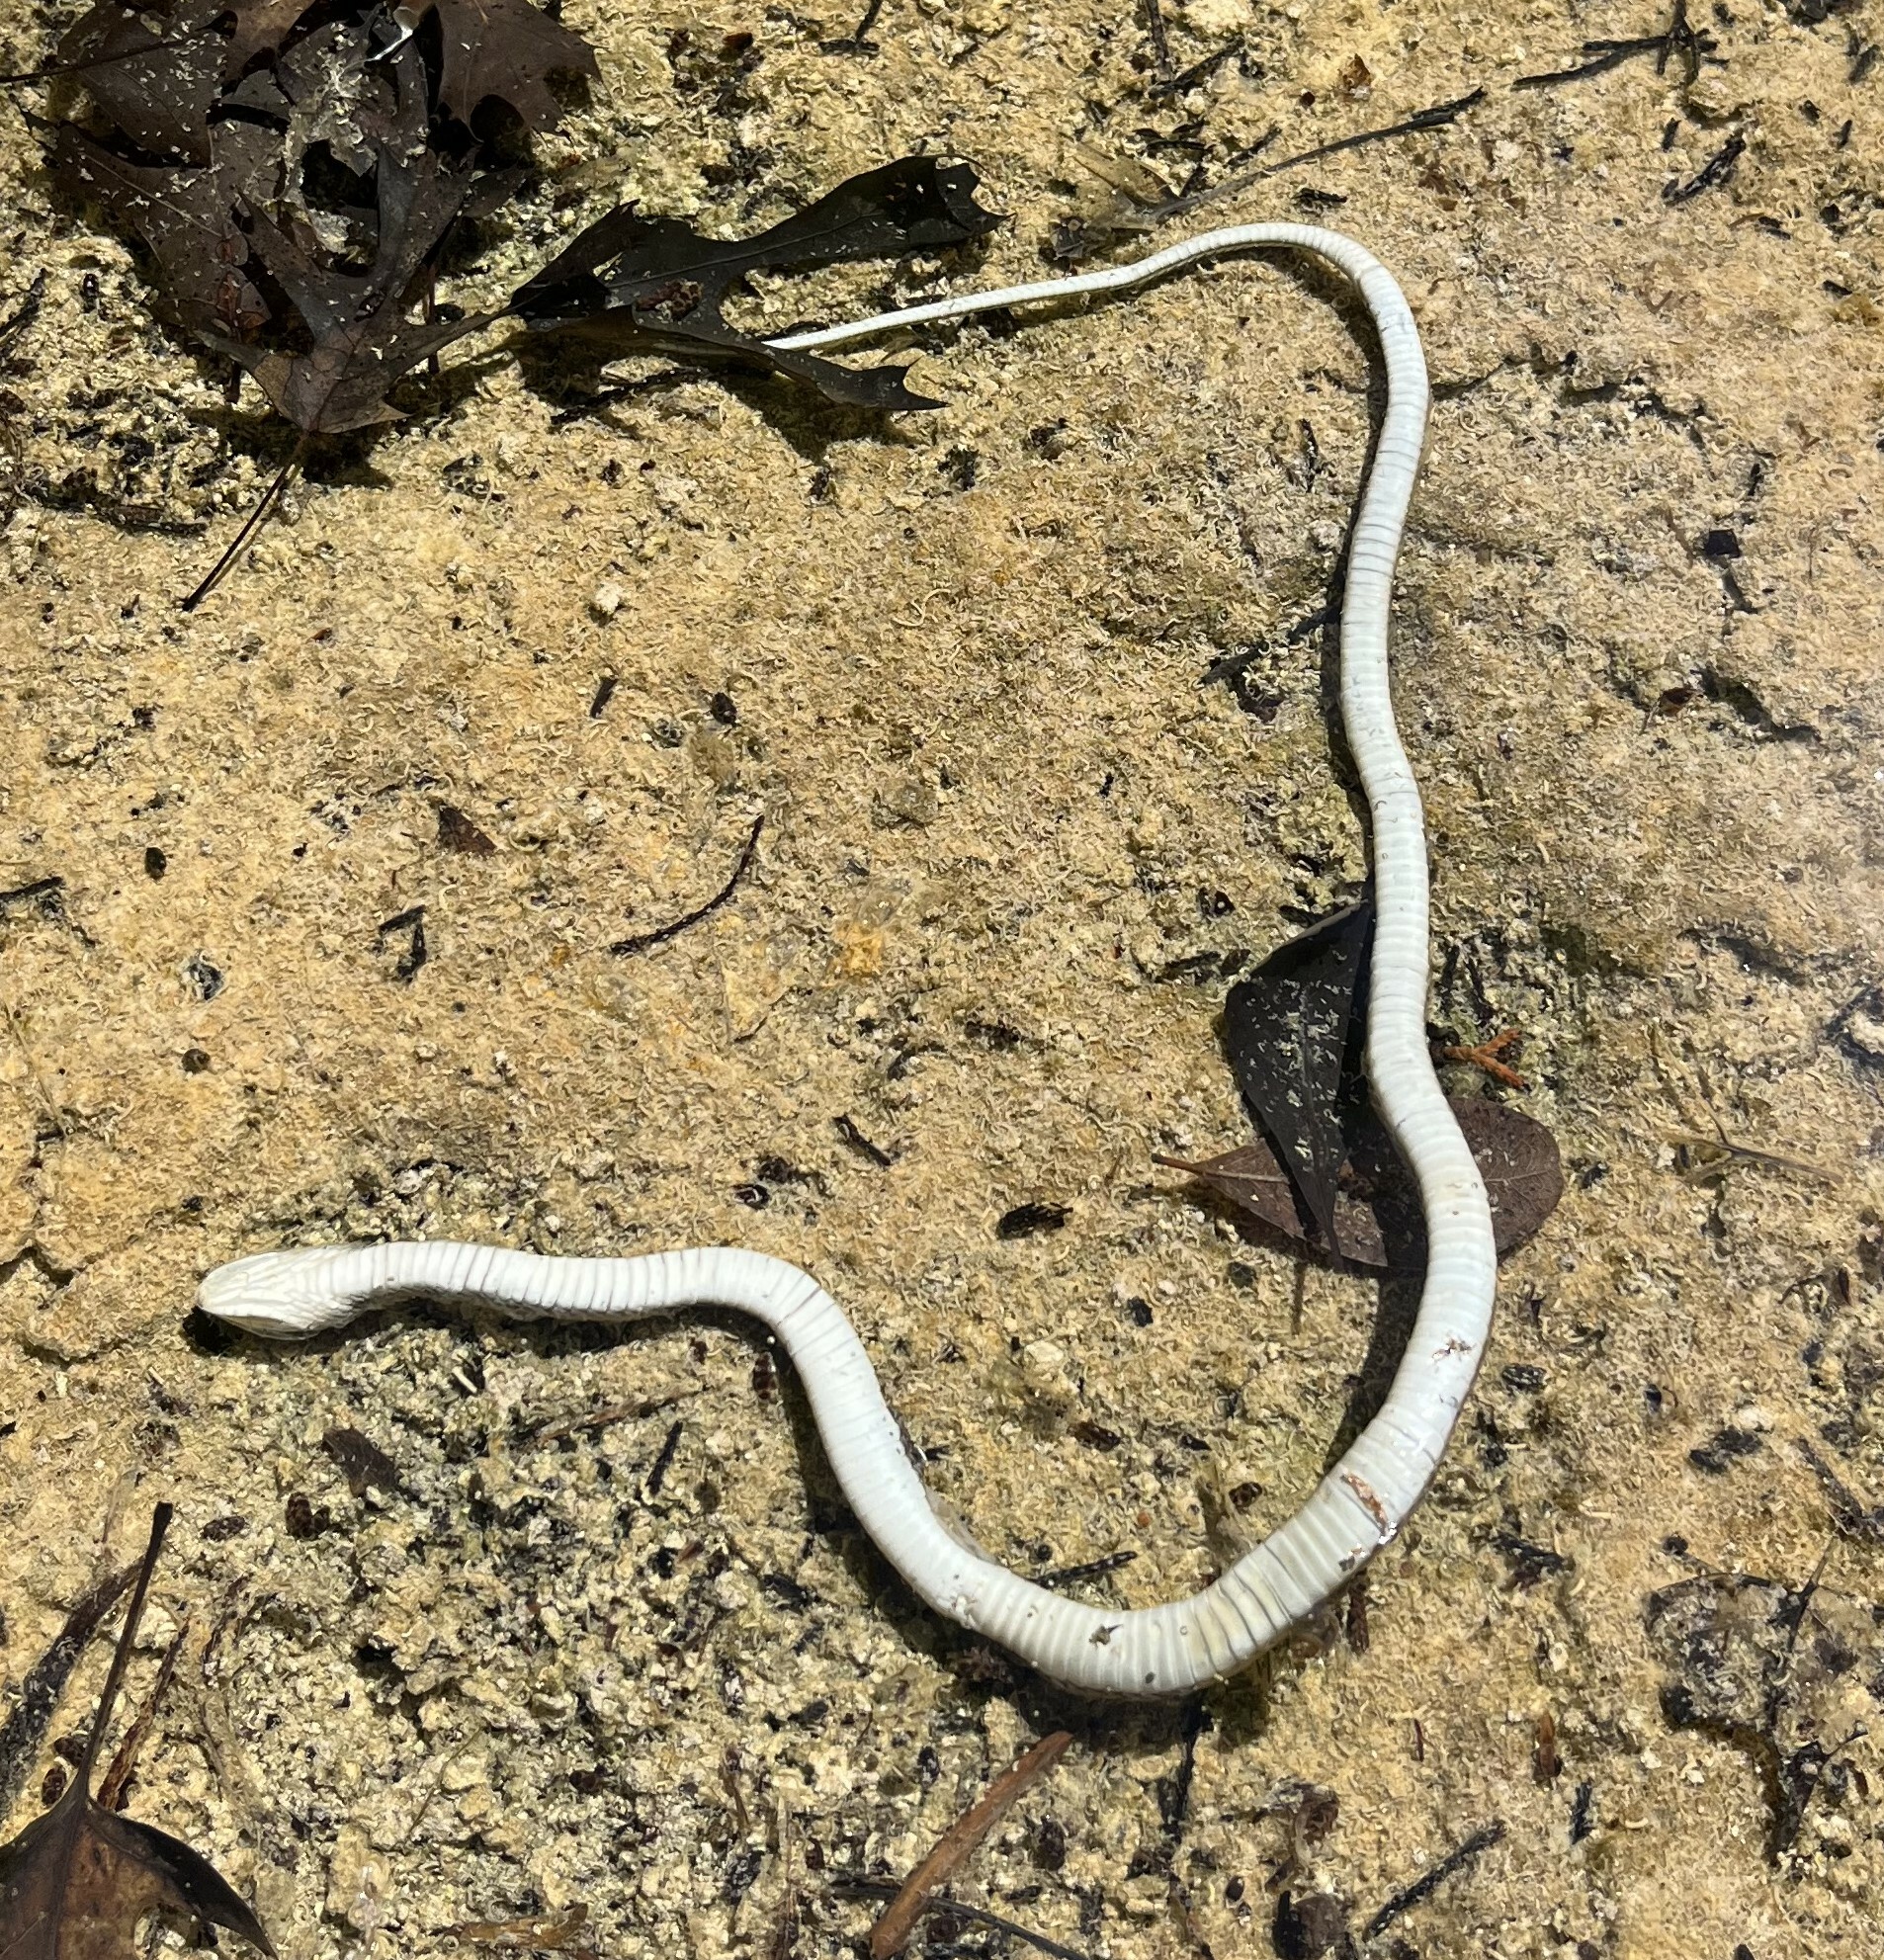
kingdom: Animalia
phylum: Chordata
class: Squamata
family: Colubridae
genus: Thamnophis
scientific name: Thamnophis proximus
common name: Western ribbon snake
